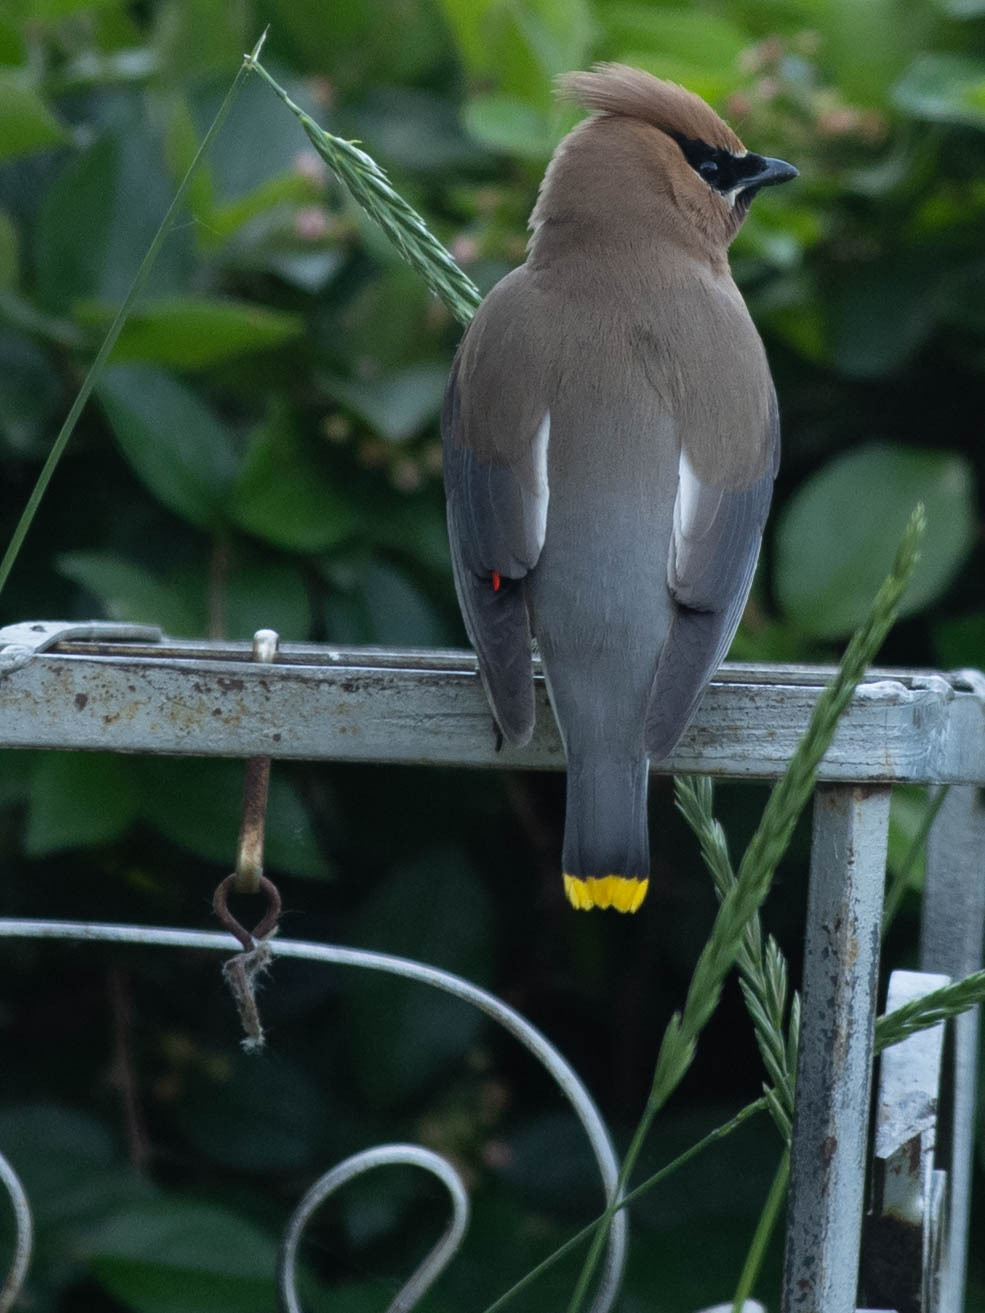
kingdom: Animalia
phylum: Chordata
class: Aves
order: Passeriformes
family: Bombycillidae
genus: Bombycilla
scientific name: Bombycilla cedrorum
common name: Cedar waxwing
